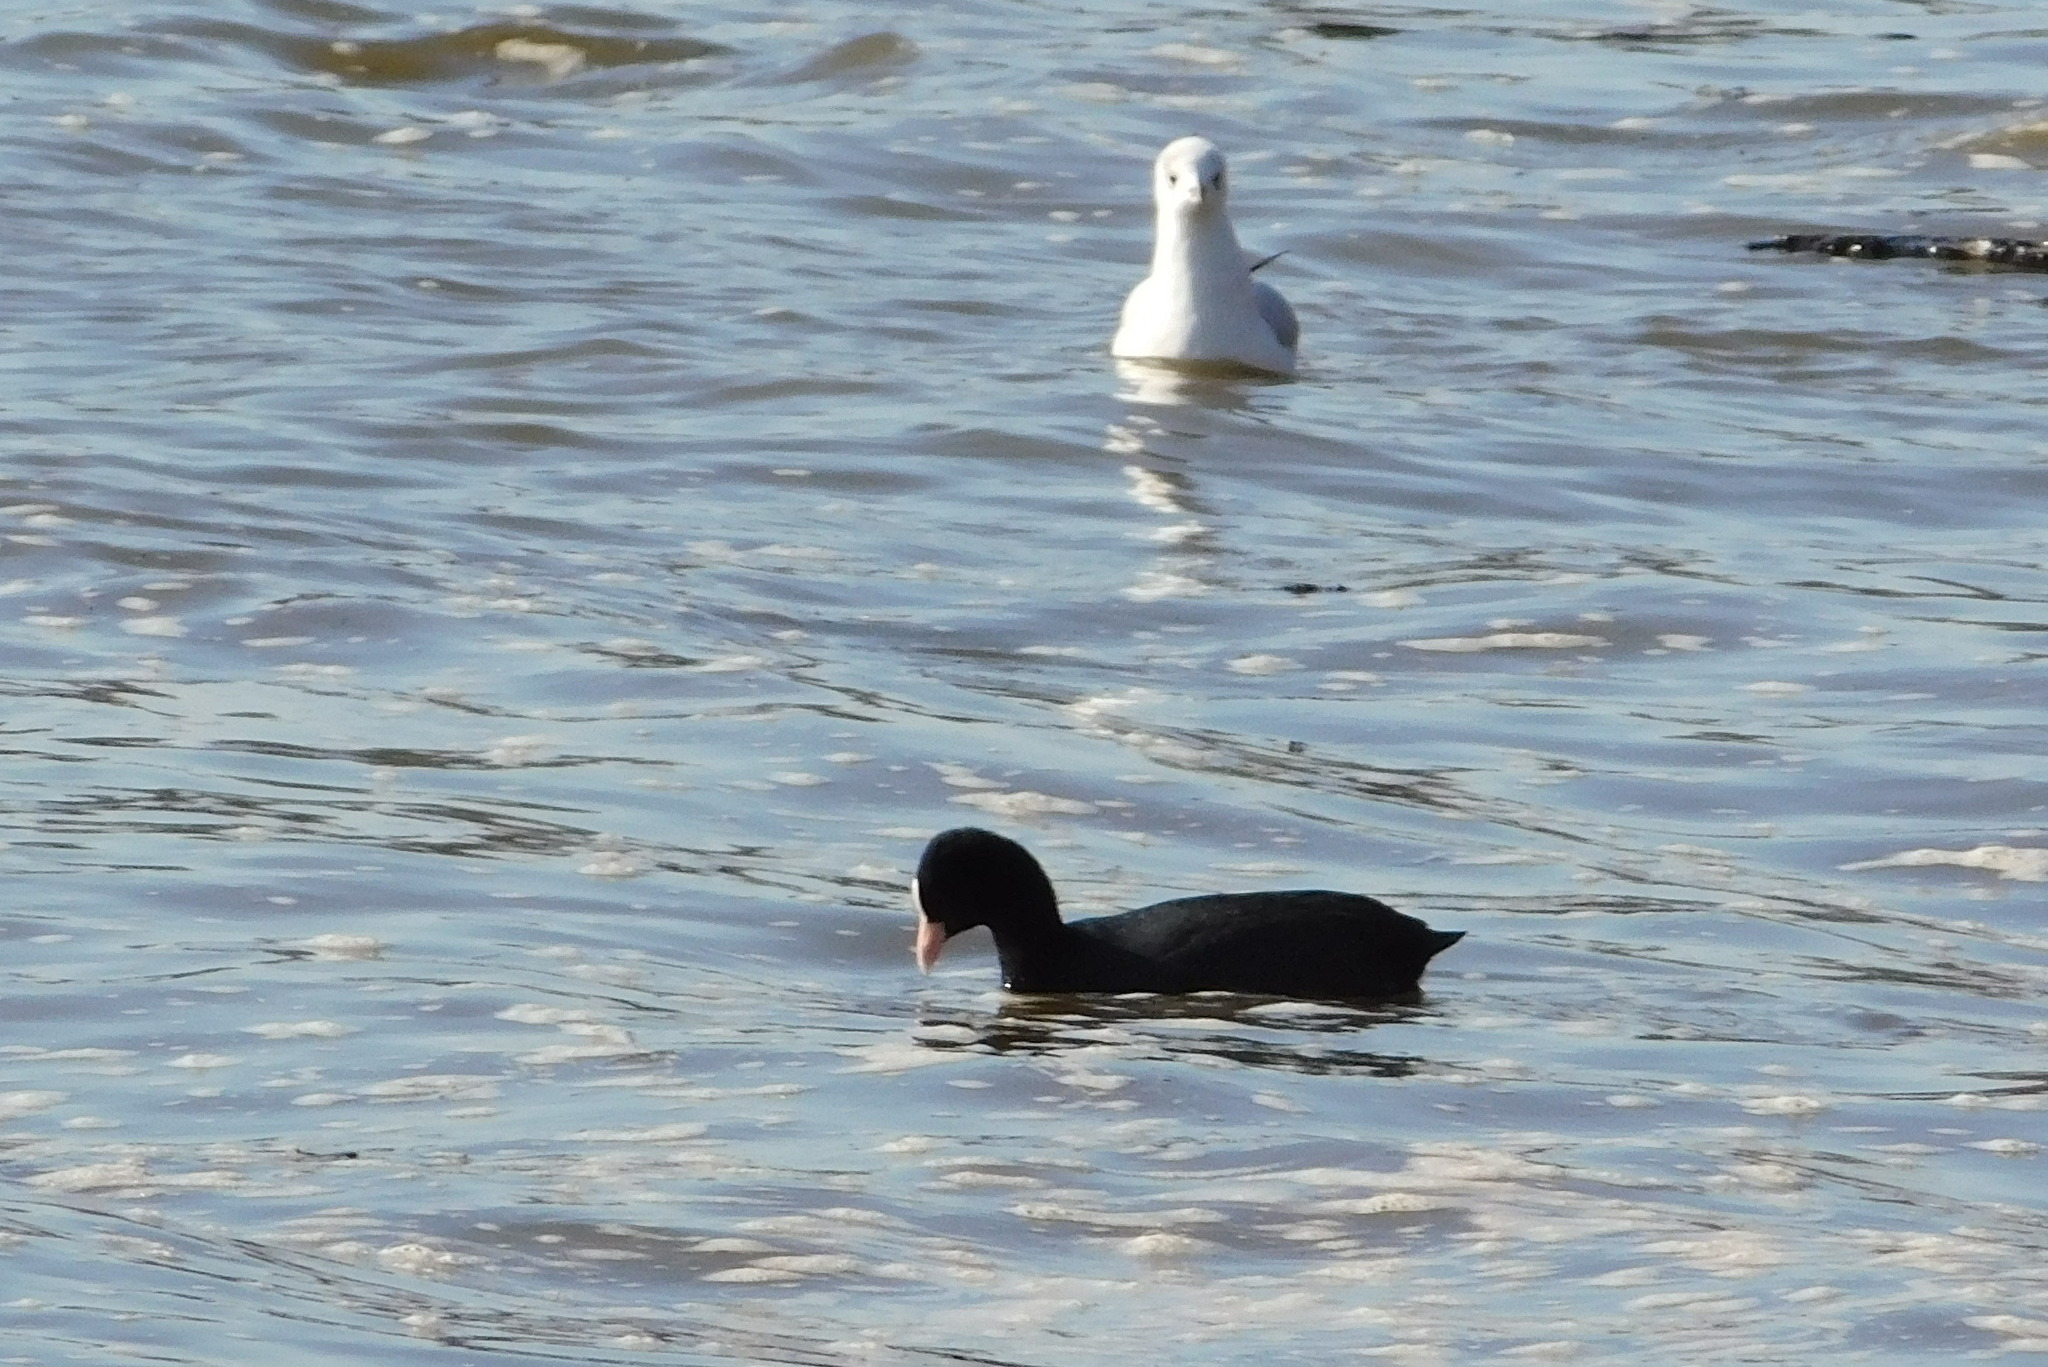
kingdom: Animalia
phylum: Chordata
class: Aves
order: Gruiformes
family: Rallidae
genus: Fulica
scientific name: Fulica atra
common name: Eurasian coot
